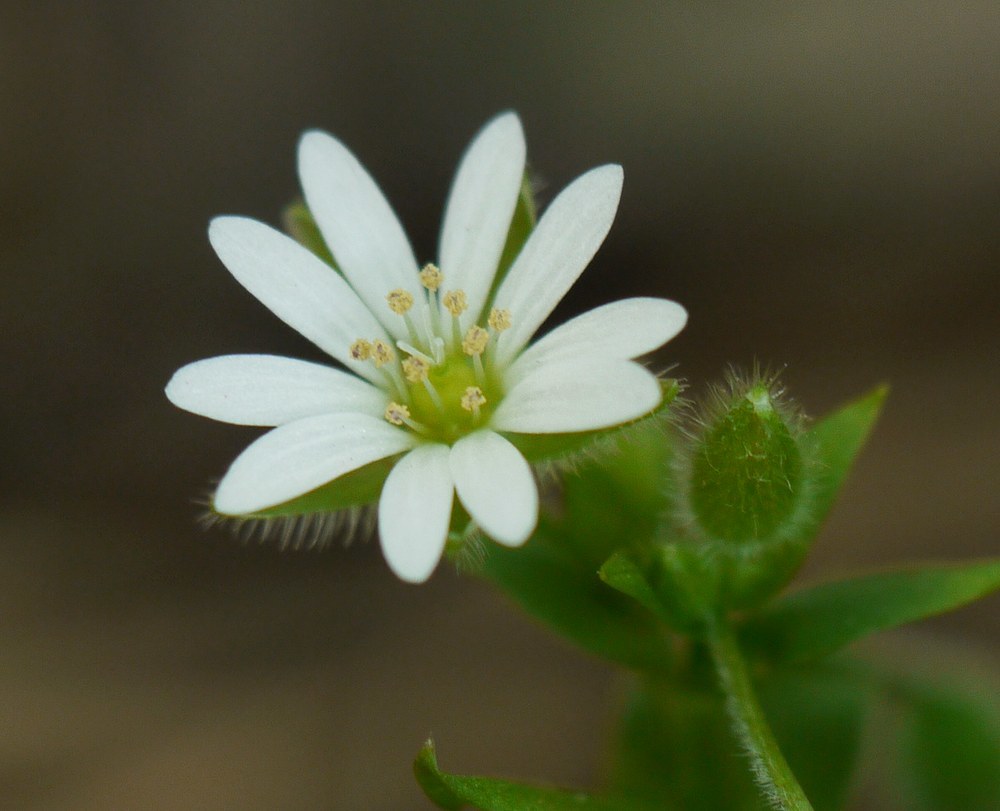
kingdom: Plantae
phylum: Tracheophyta
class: Magnoliopsida
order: Caryophyllales
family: Caryophyllaceae
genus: Stellaria
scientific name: Stellaria media
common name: Common chickweed
